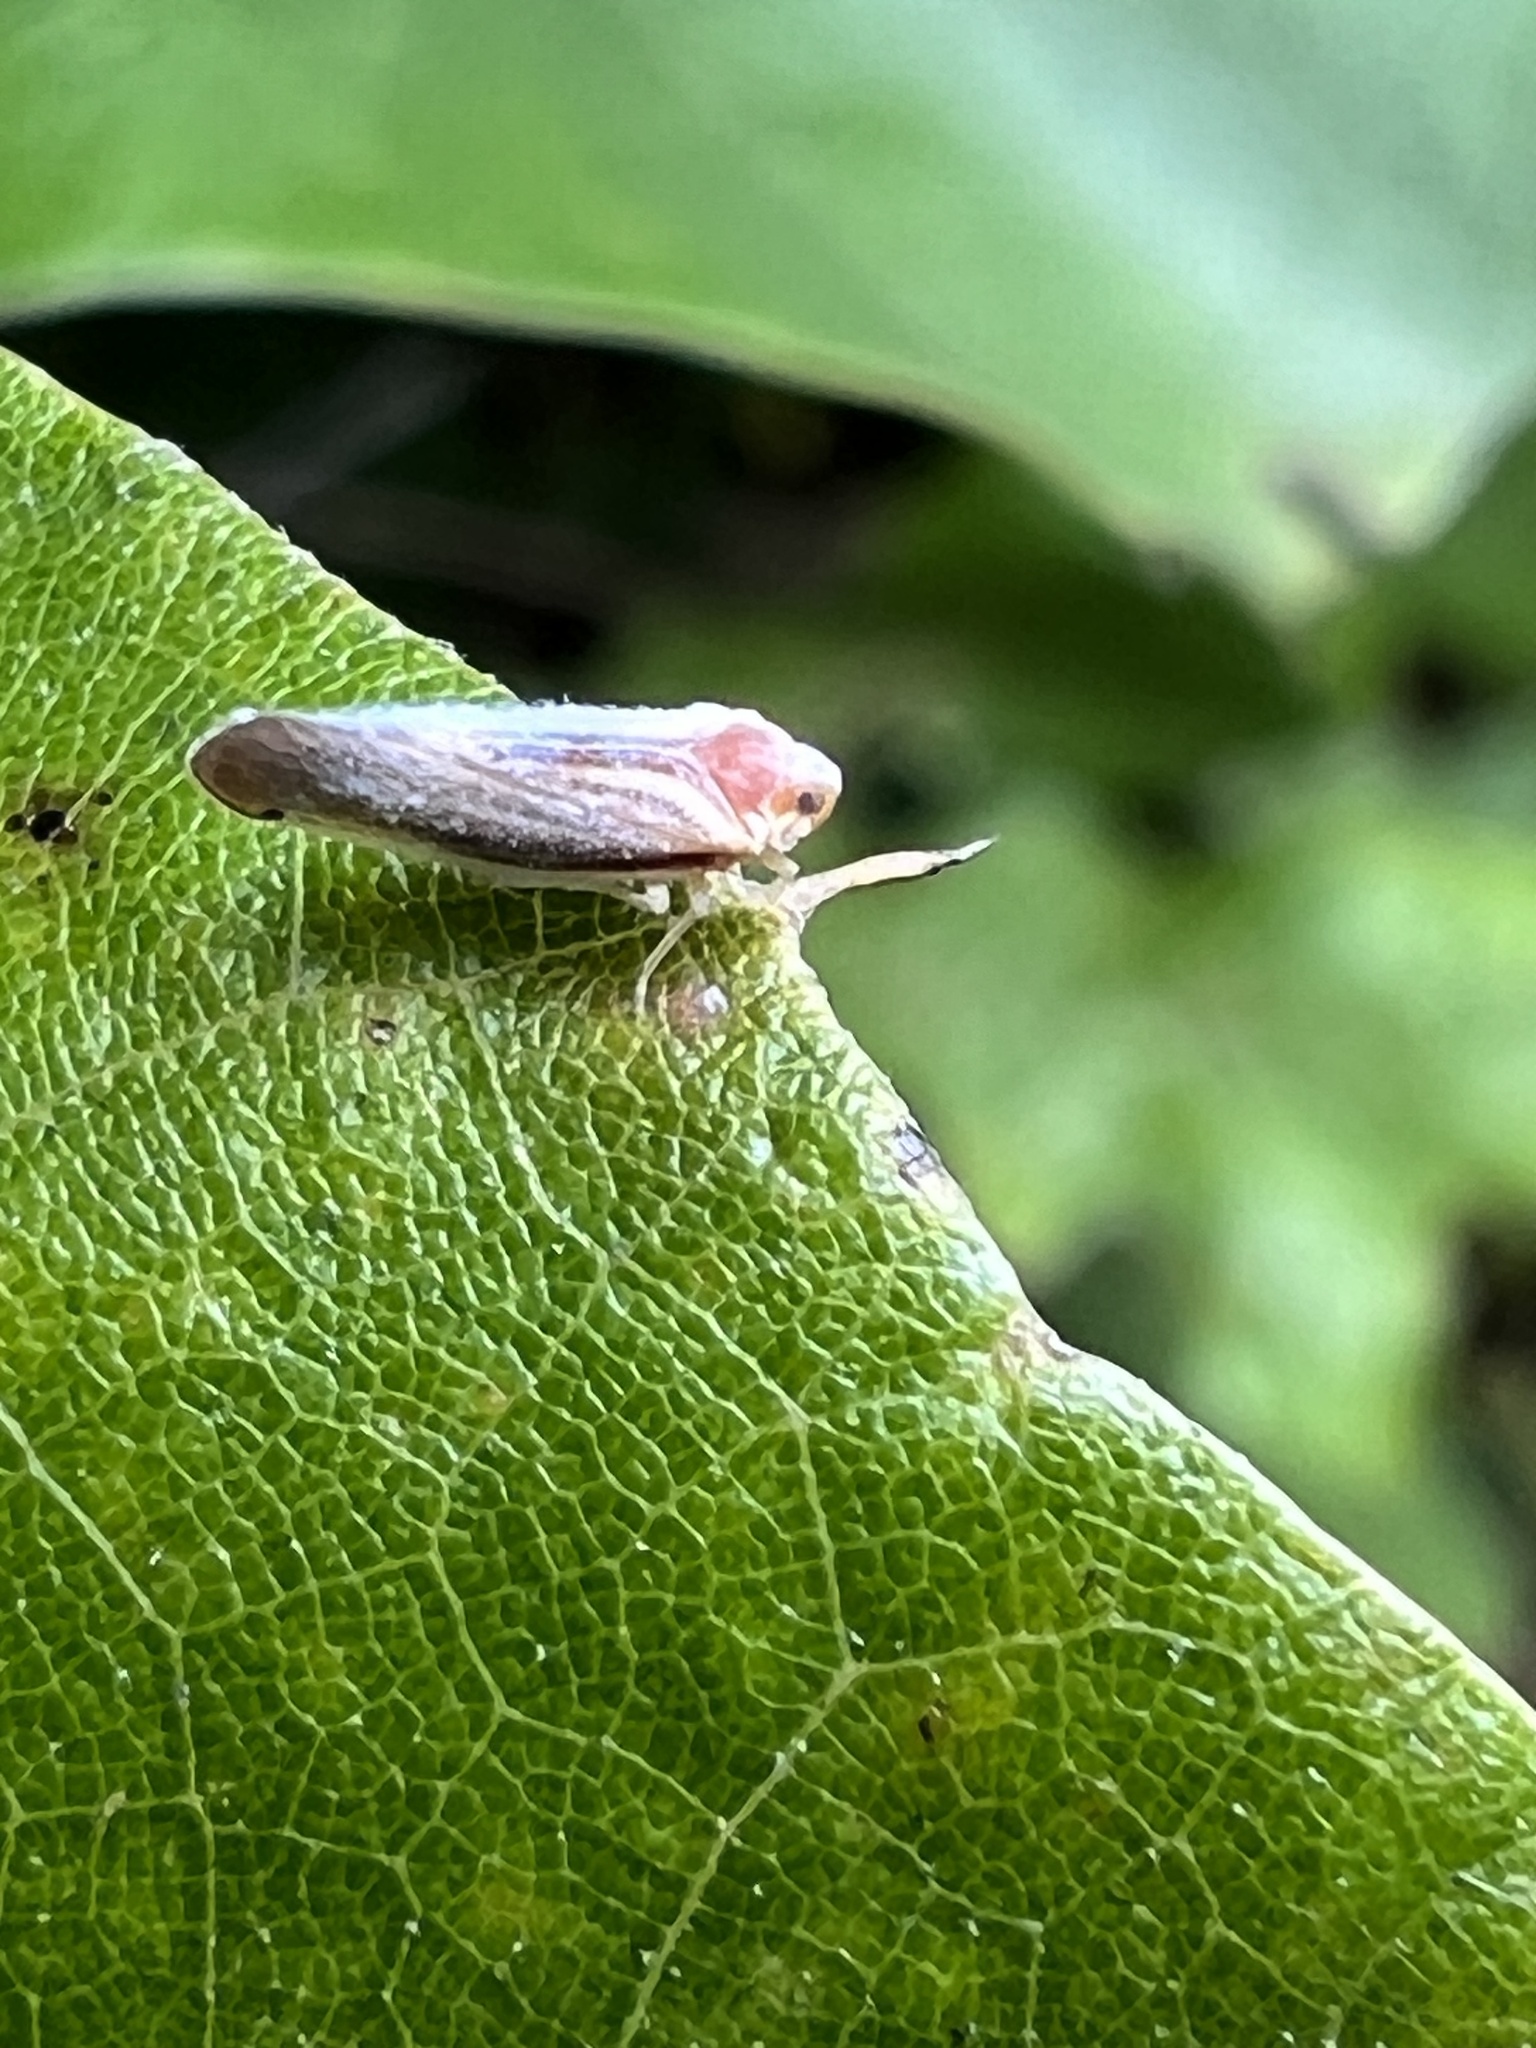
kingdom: Animalia
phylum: Arthropoda
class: Insecta
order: Hemiptera
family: Derbidae
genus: Omolicna
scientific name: Omolicna uhleri
